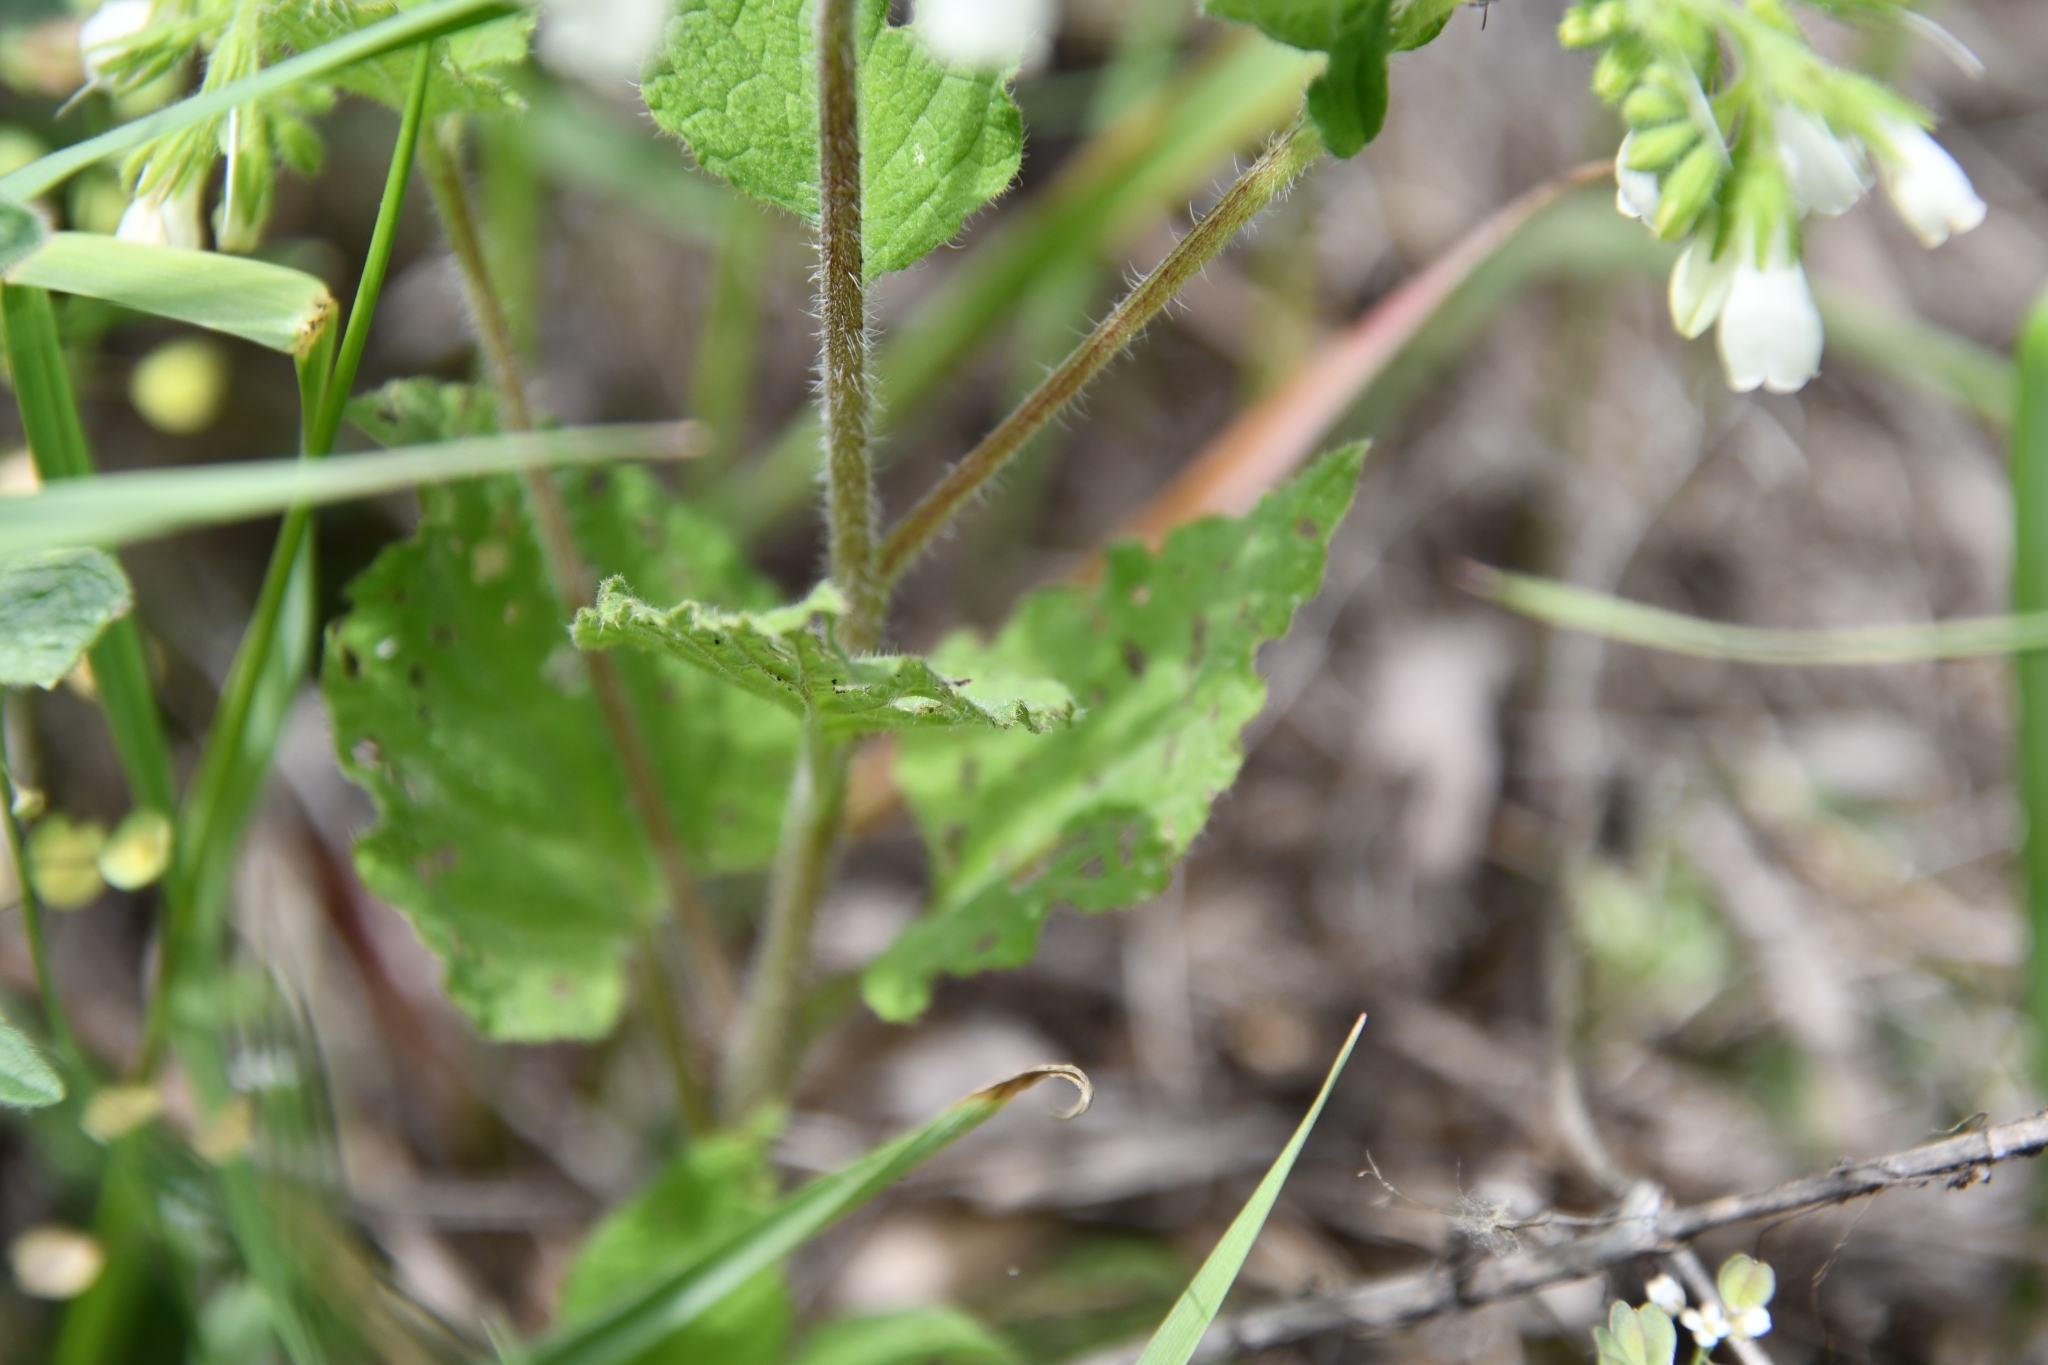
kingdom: Plantae
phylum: Tracheophyta
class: Magnoliopsida
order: Boraginales
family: Boraginaceae
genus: Symphytum
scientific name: Symphytum tauricum
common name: Crimean comfrey
